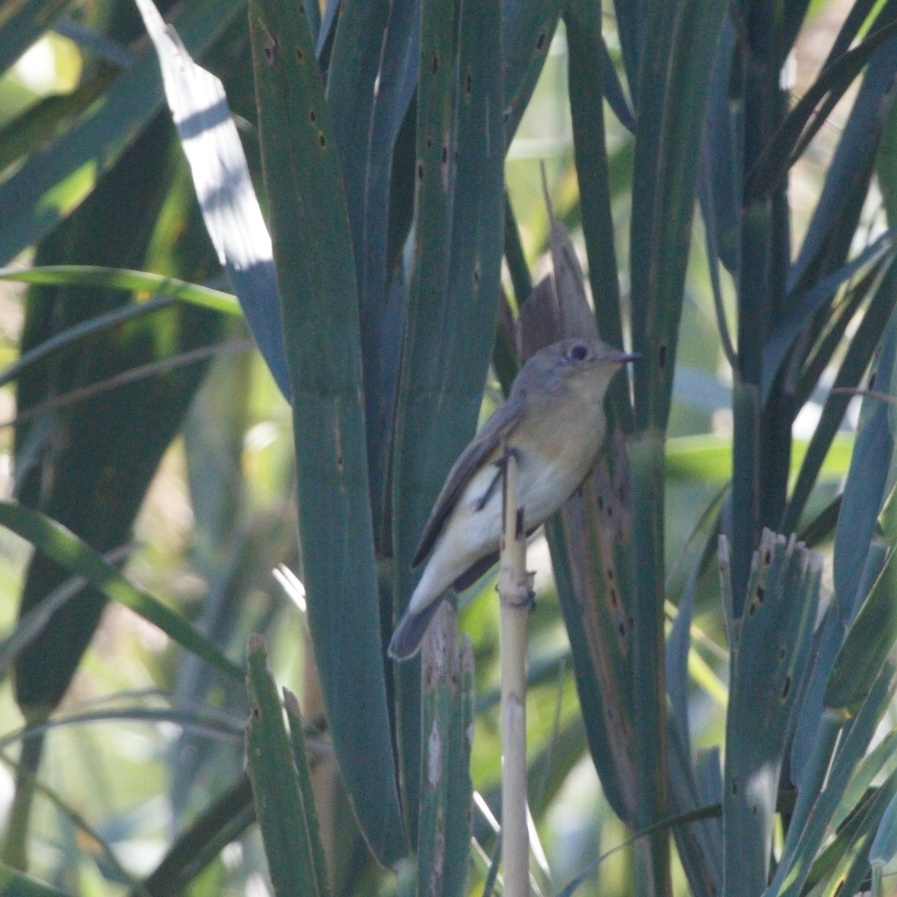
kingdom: Animalia
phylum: Chordata
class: Aves
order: Passeriformes
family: Muscicapidae
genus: Ficedula
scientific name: Ficedula parva
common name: Red-breasted flycatcher
